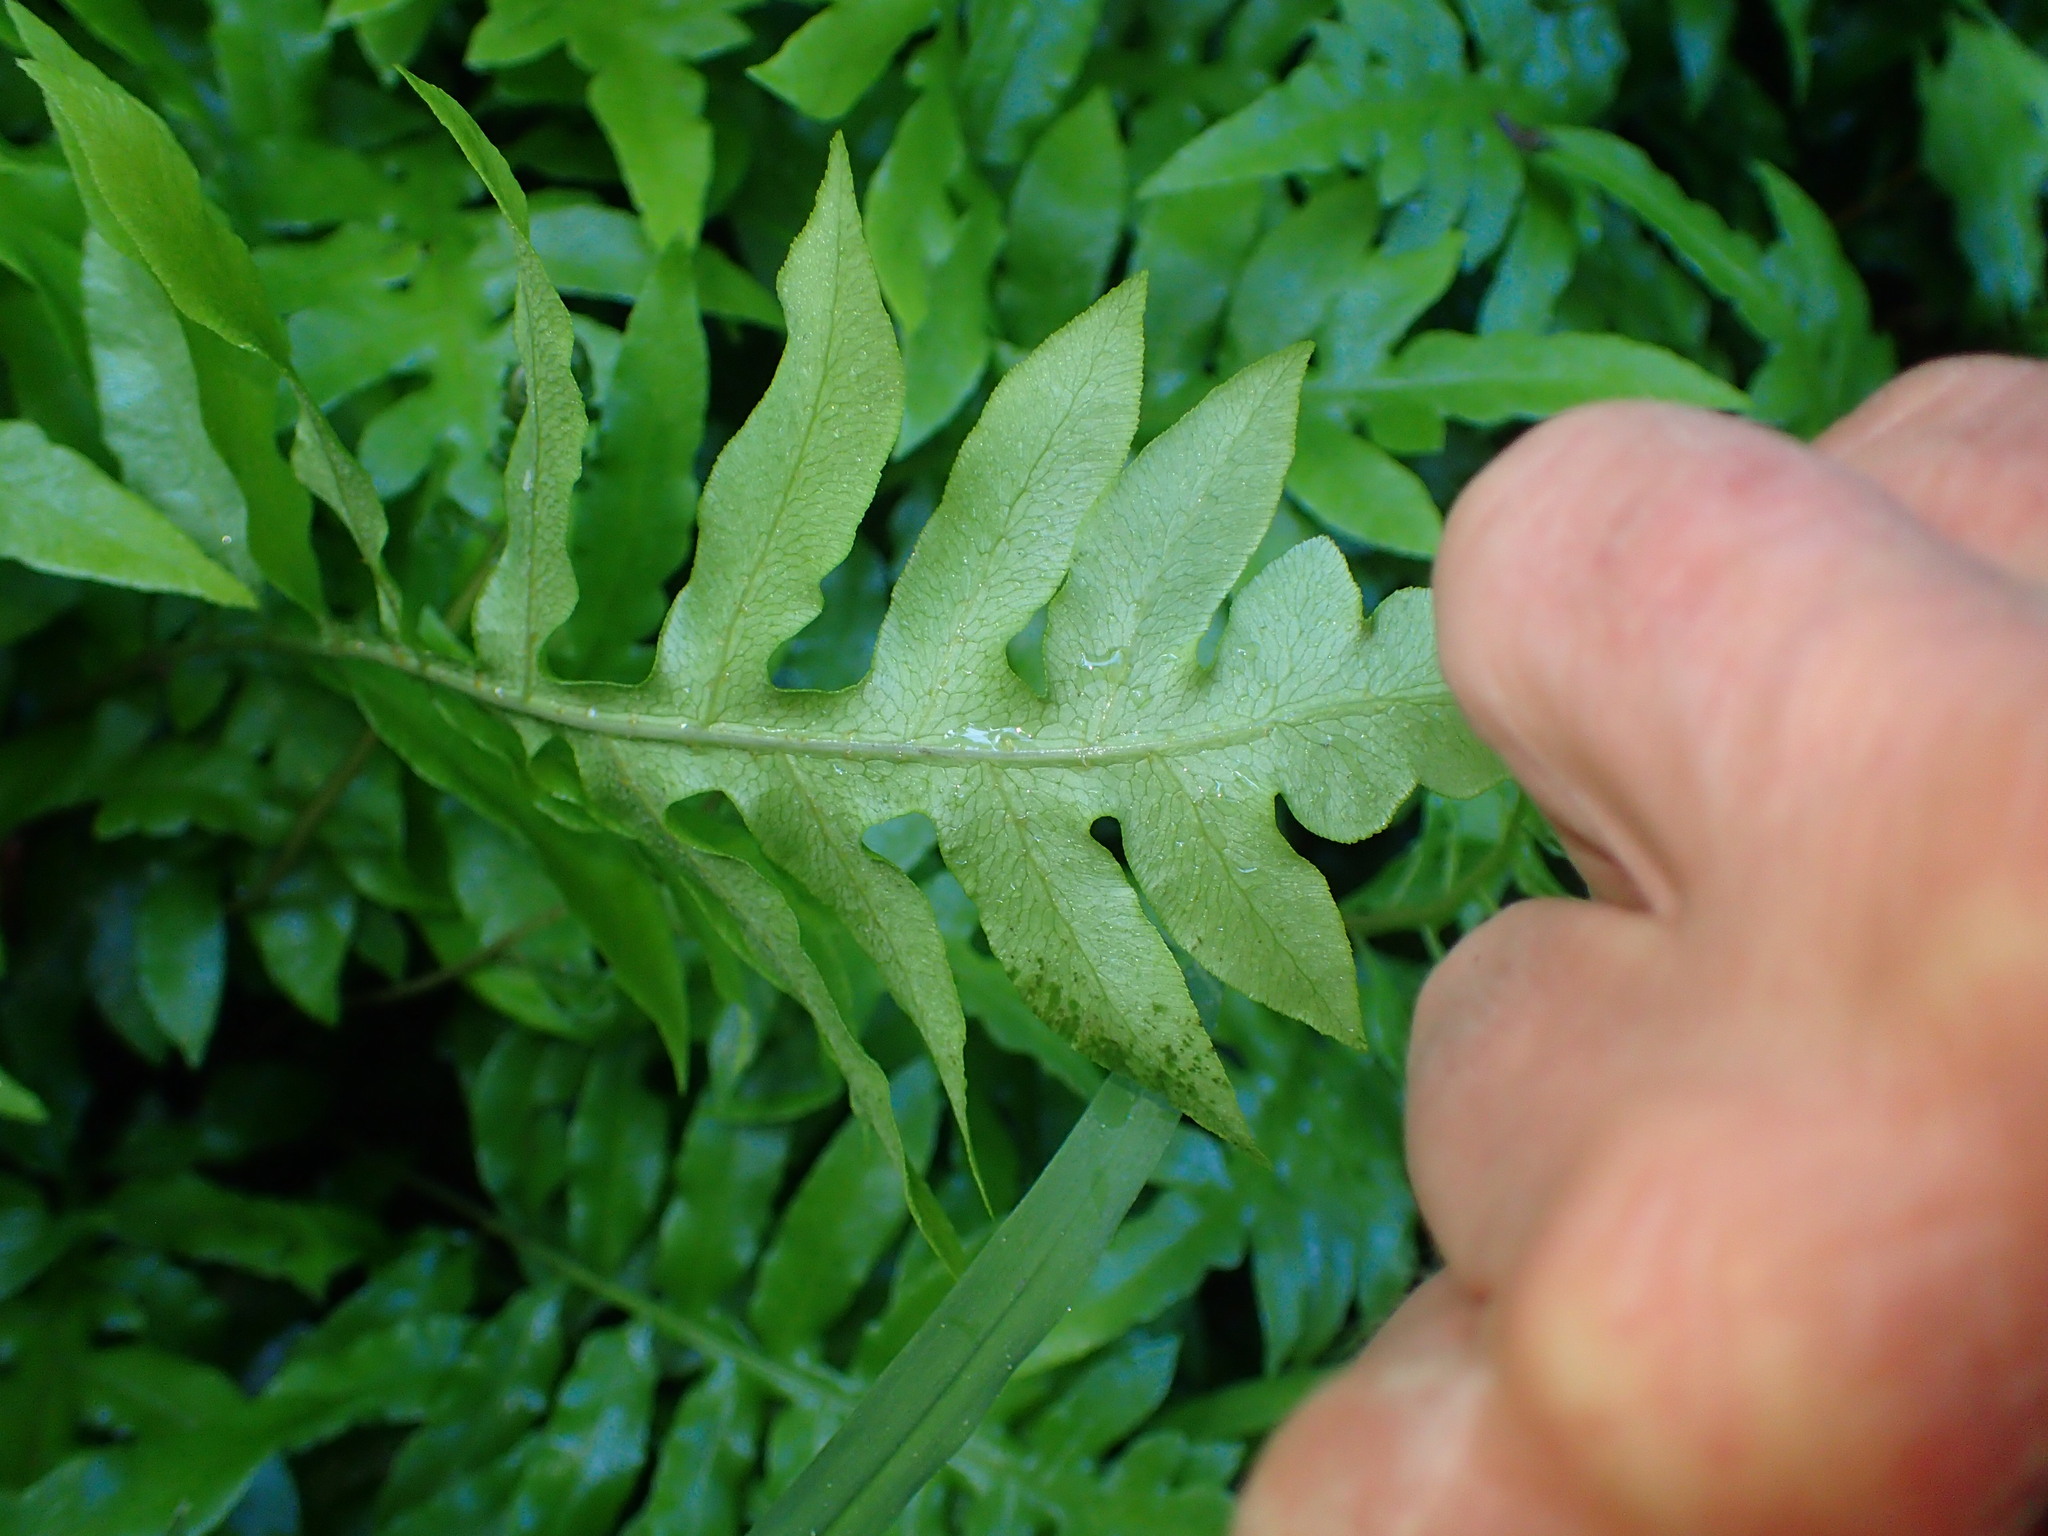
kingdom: Plantae
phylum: Tracheophyta
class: Polypodiopsida
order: Polypodiales
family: Blechnaceae
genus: Lorinseria
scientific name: Lorinseria areolata
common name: Dwarf chain fern
